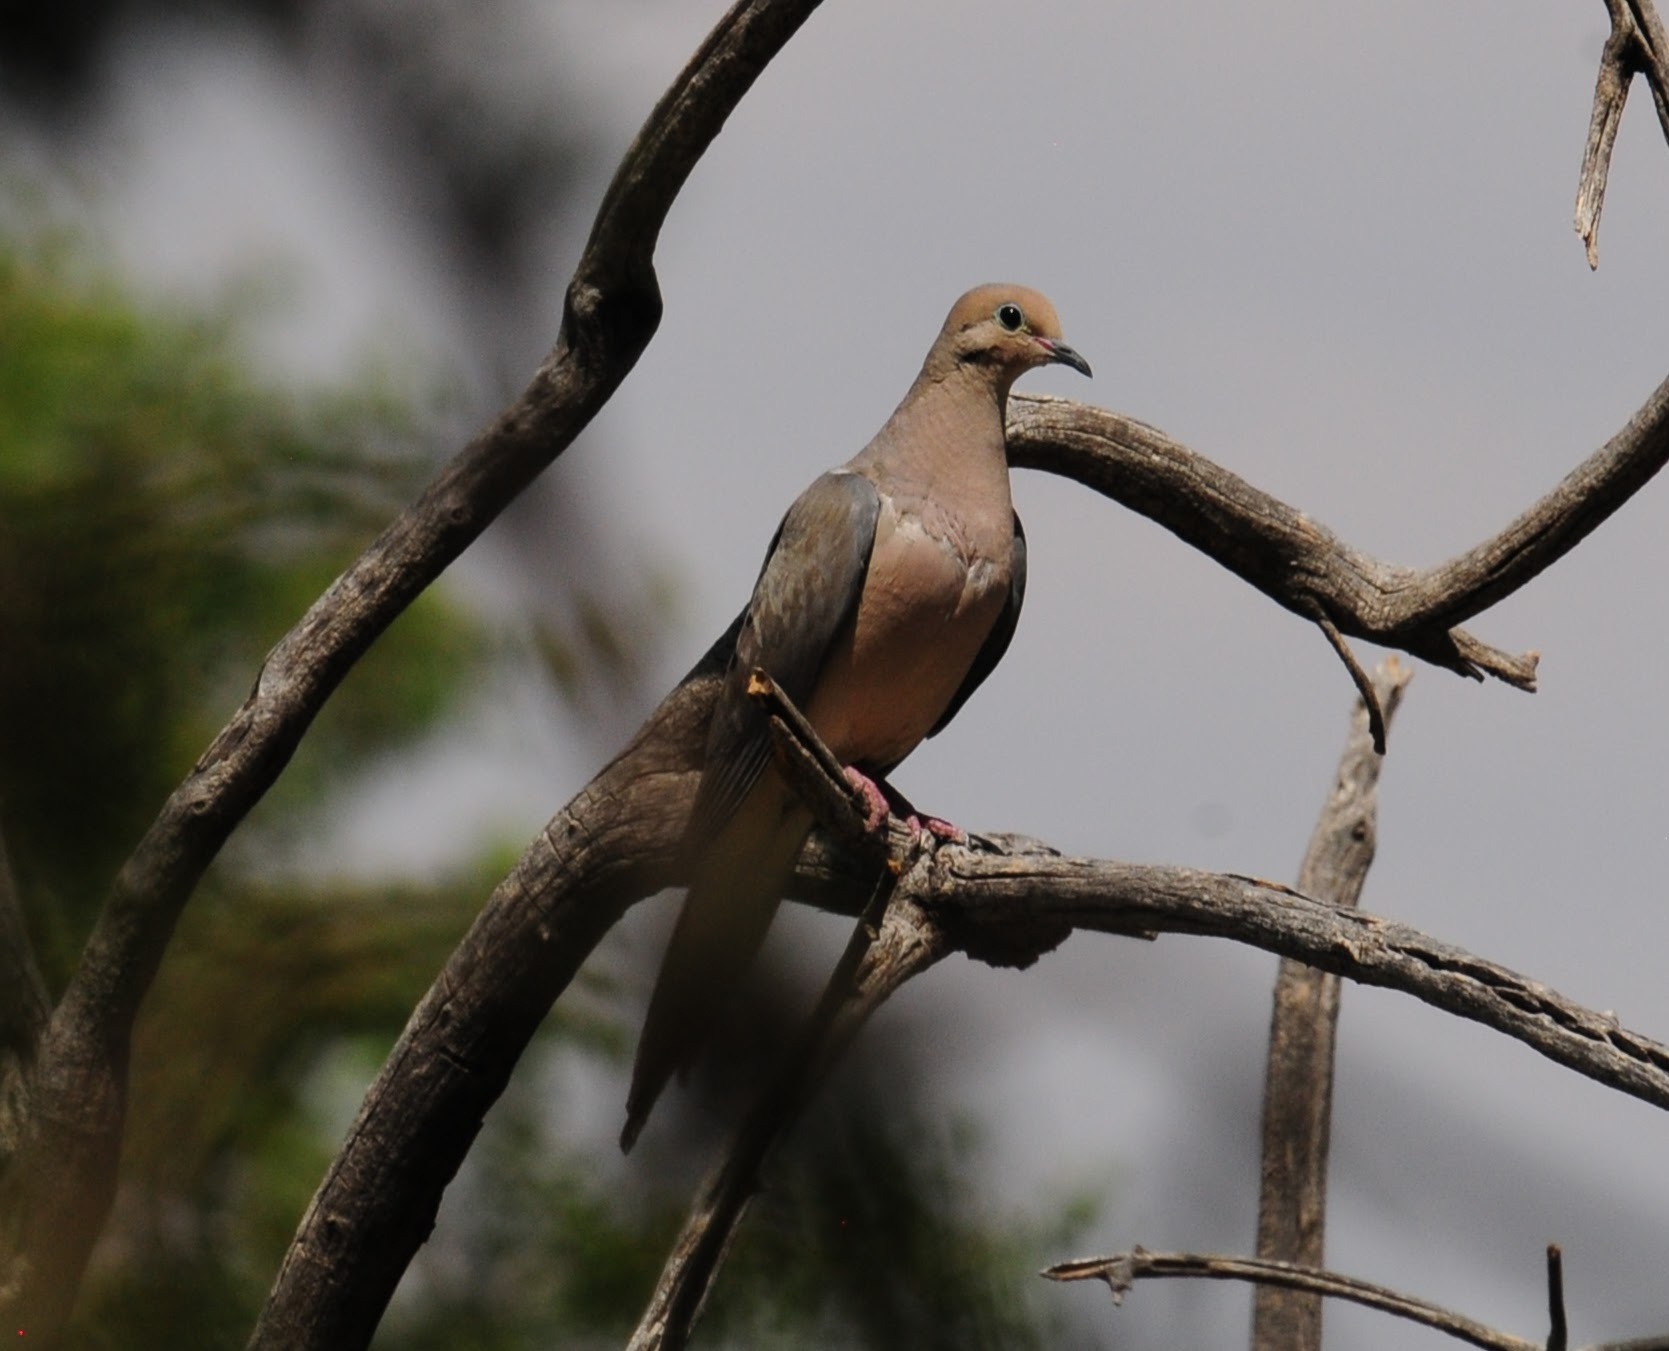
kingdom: Animalia
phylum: Chordata
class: Aves
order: Columbiformes
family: Columbidae
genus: Zenaida
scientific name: Zenaida macroura
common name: Mourning dove
